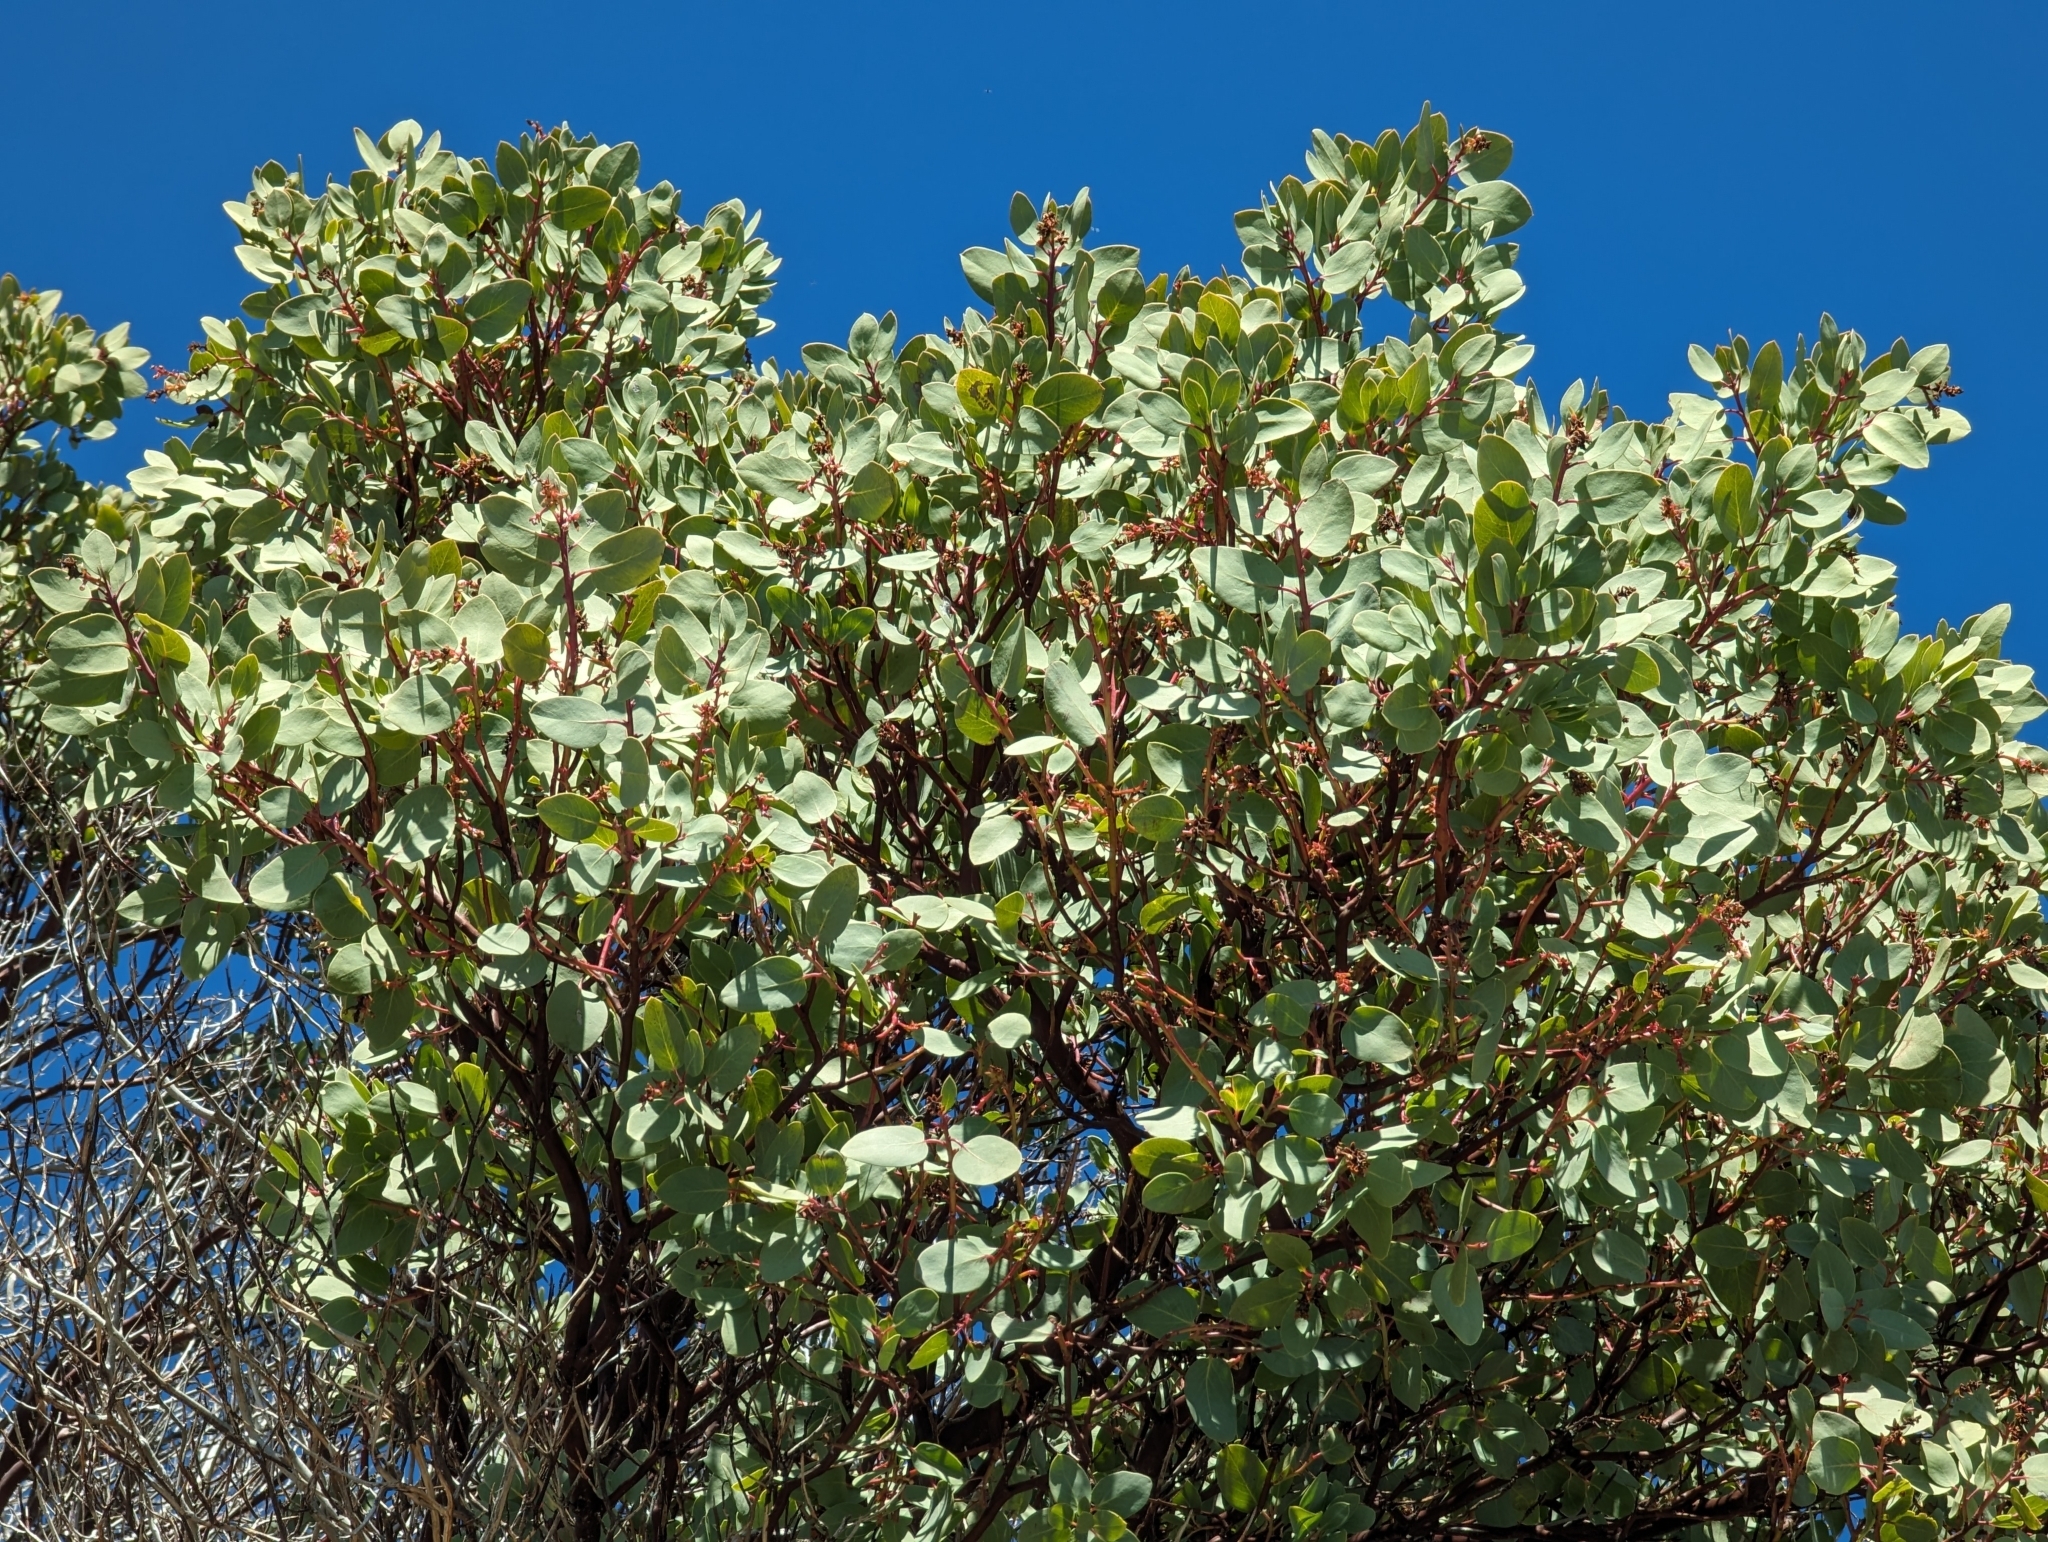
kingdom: Plantae
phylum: Tracheophyta
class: Magnoliopsida
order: Ericales
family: Ericaceae
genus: Arctostaphylos
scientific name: Arctostaphylos glauca
